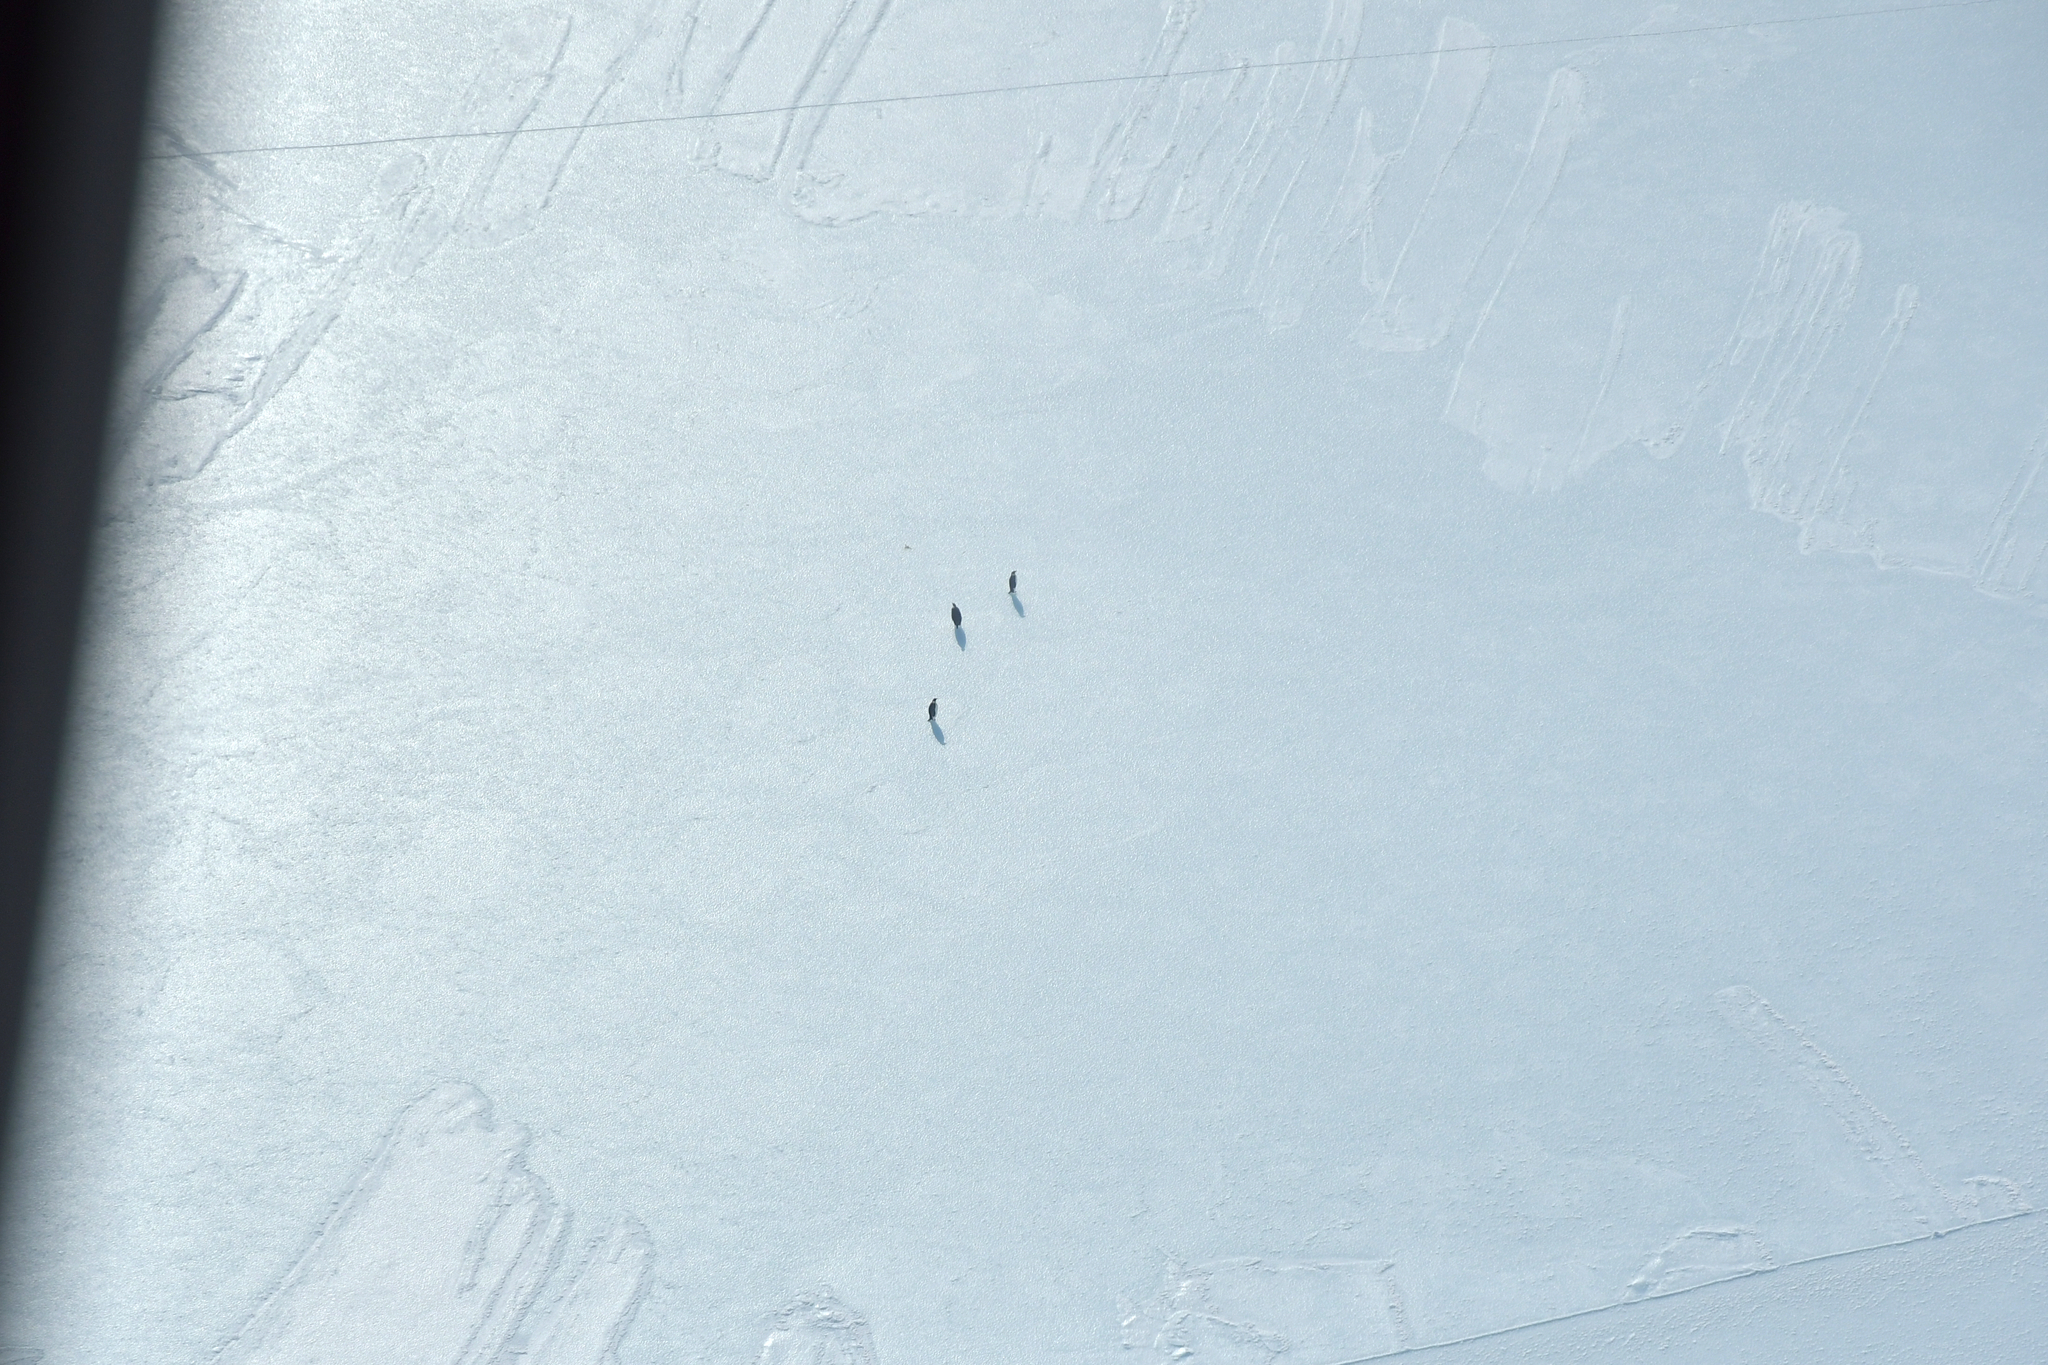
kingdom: Animalia
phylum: Chordata
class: Aves
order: Sphenisciformes
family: Spheniscidae
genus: Aptenodytes
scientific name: Aptenodytes forsteri
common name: Emperor penguin
